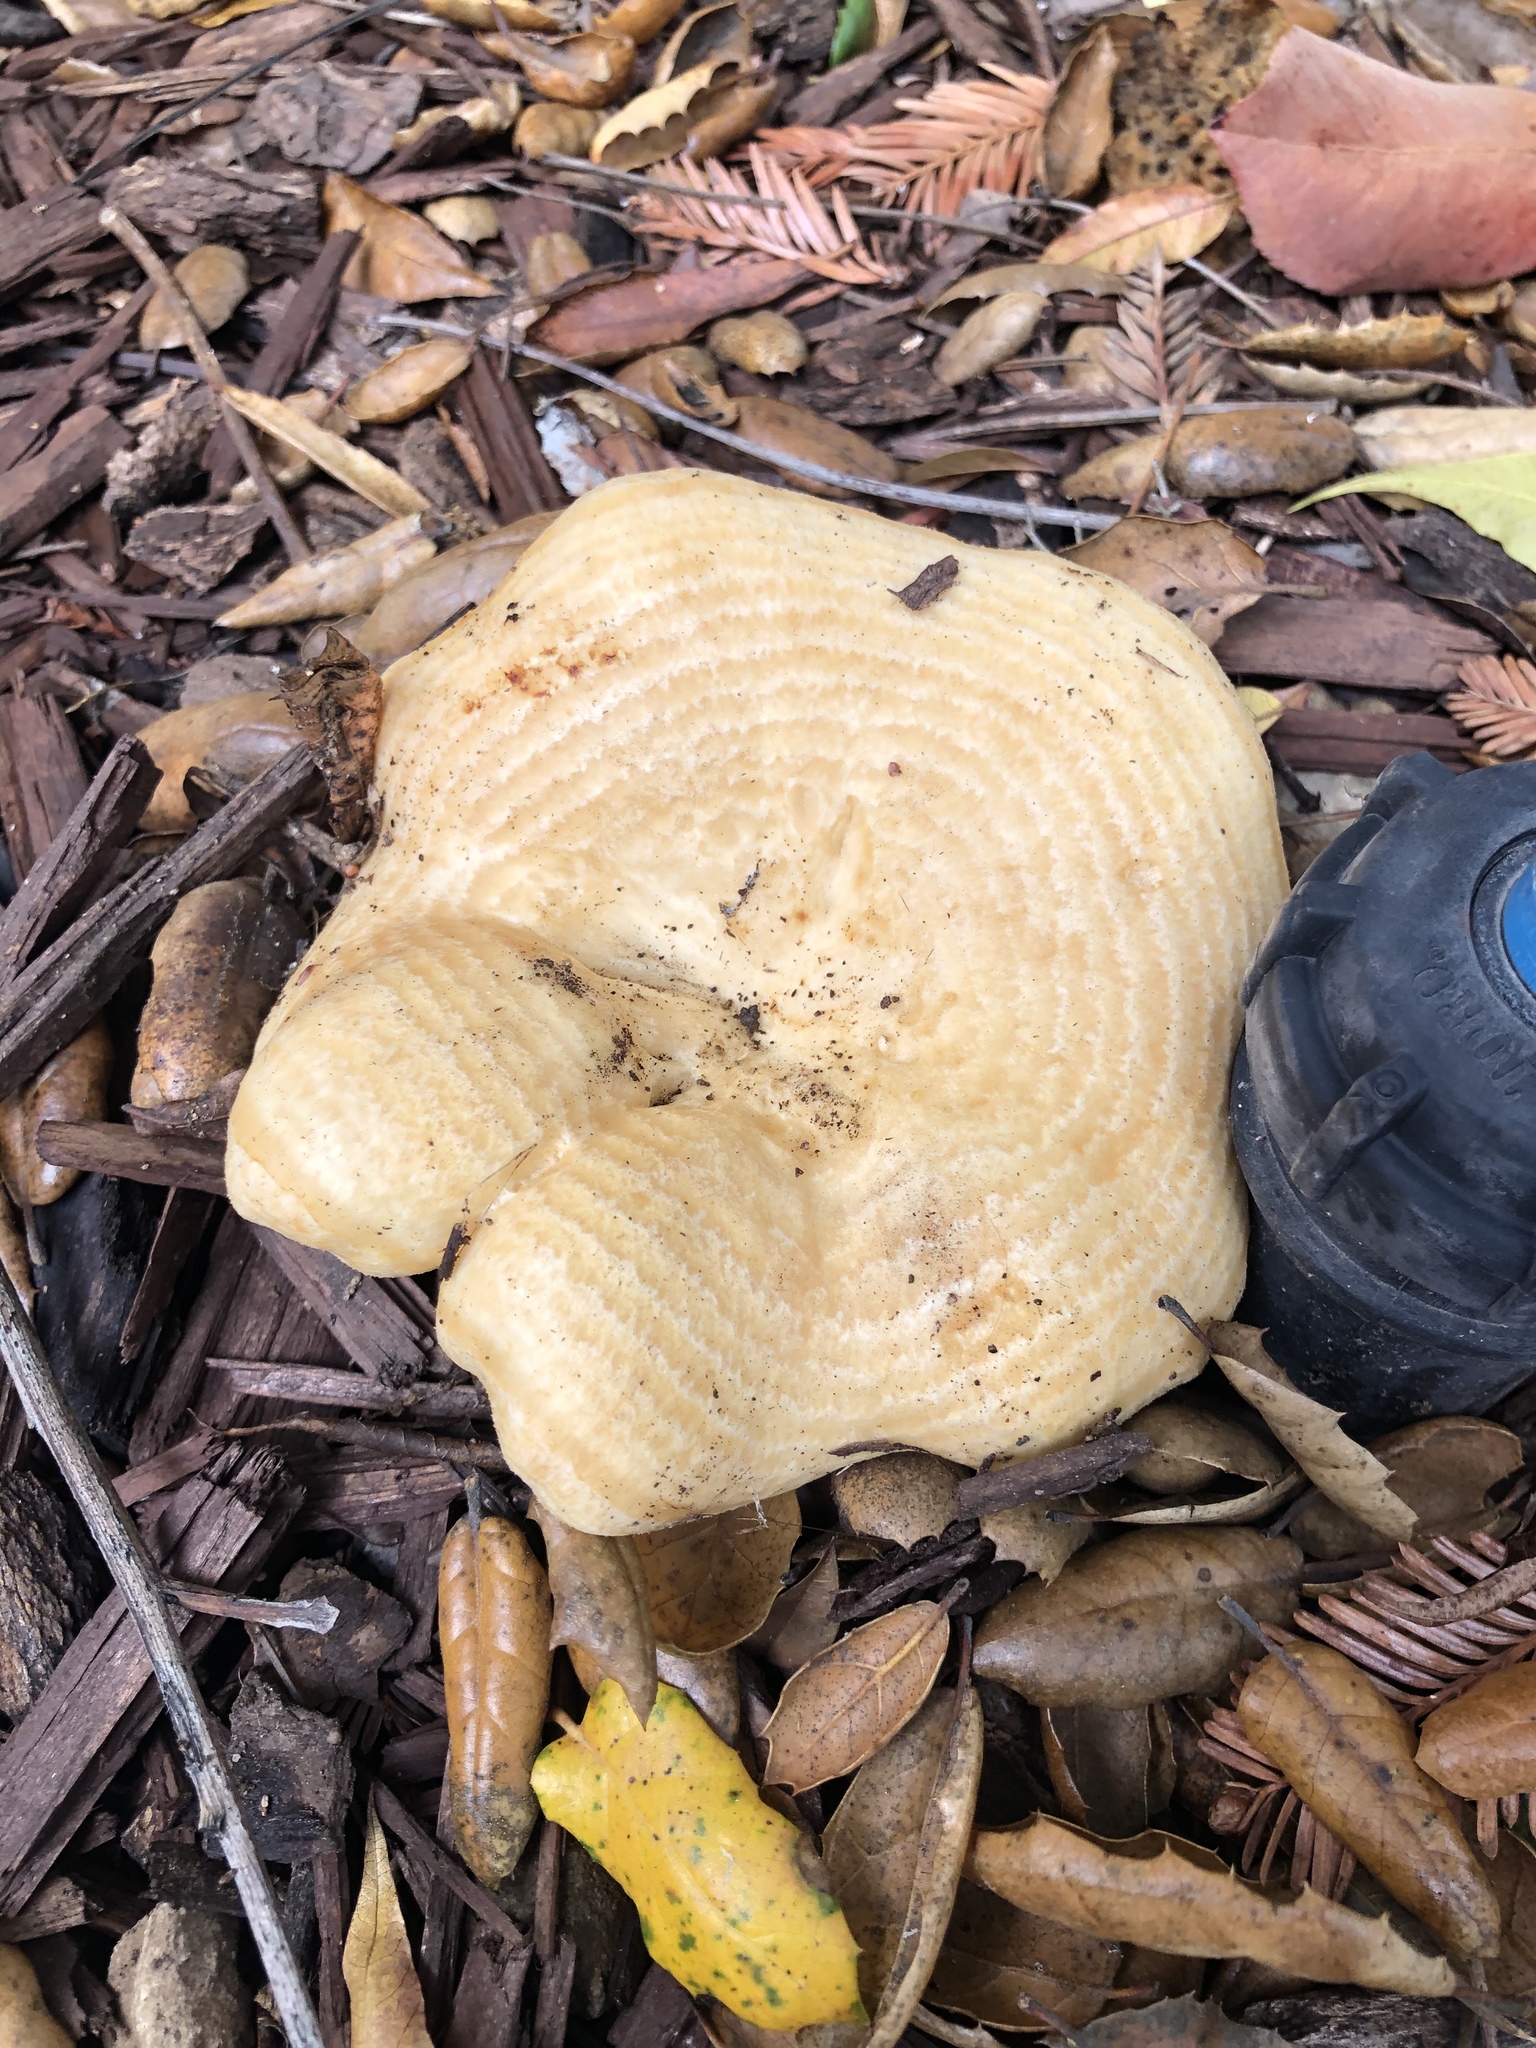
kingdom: Fungi
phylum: Basidiomycota
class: Agaricomycetes
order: Russulales
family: Russulaceae
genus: Lactarius
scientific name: Lactarius alnicola
